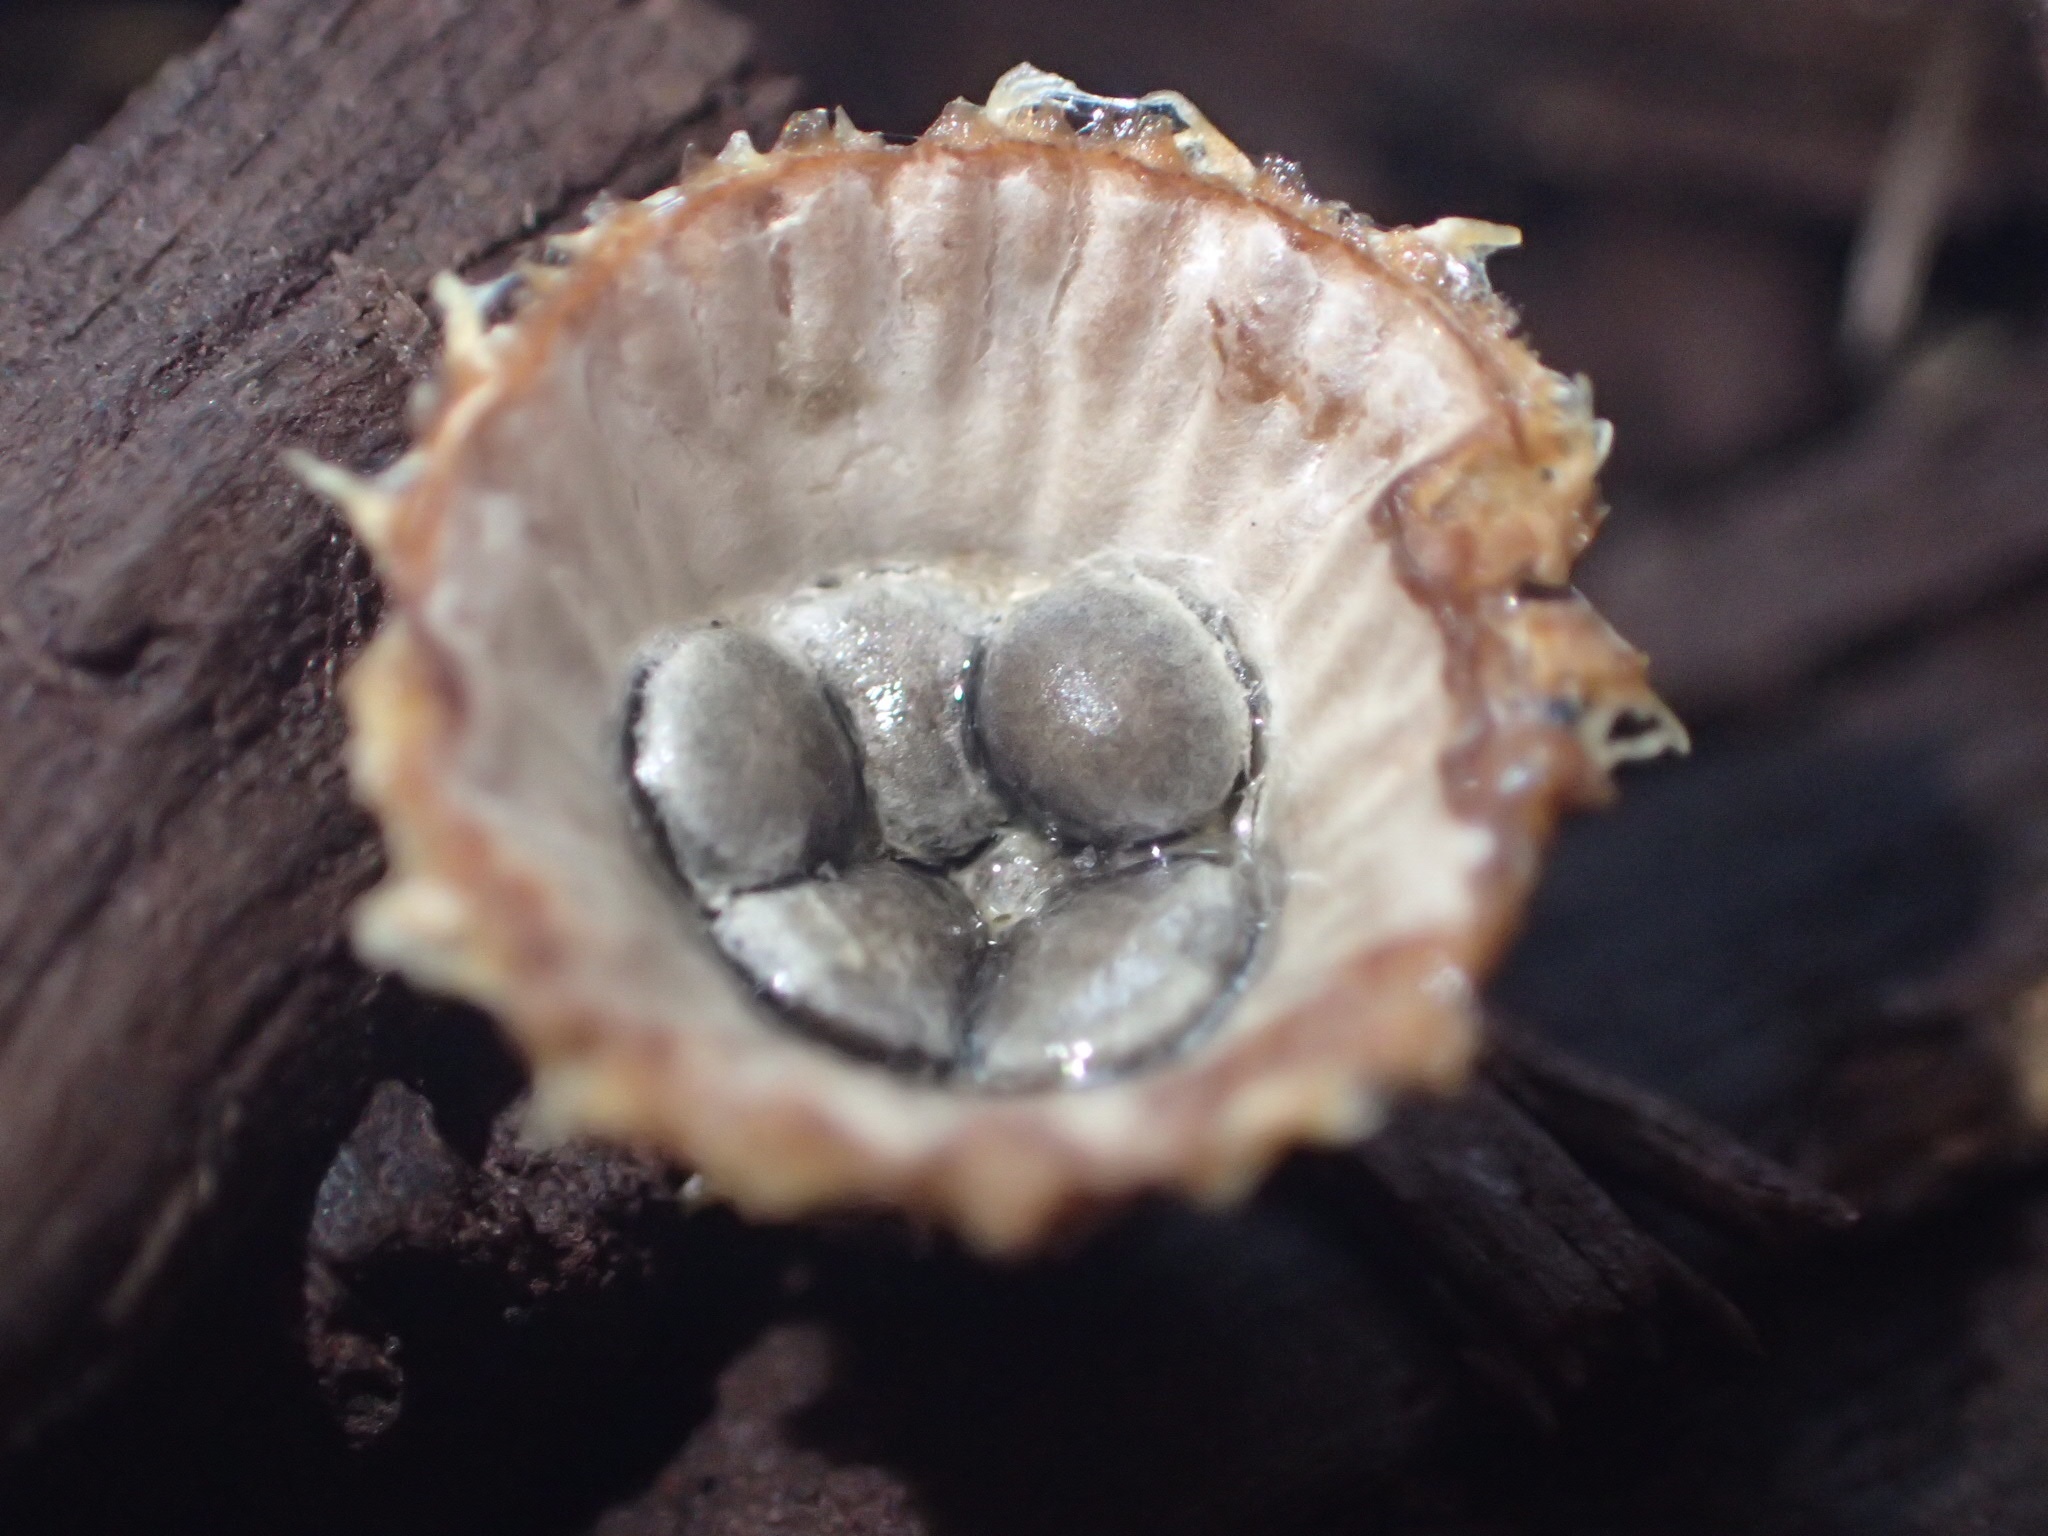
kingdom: Fungi
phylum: Basidiomycota
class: Agaricomycetes
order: Agaricales
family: Agaricaceae
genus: Cyathus
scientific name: Cyathus striatus
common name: Fluted bird's nest
